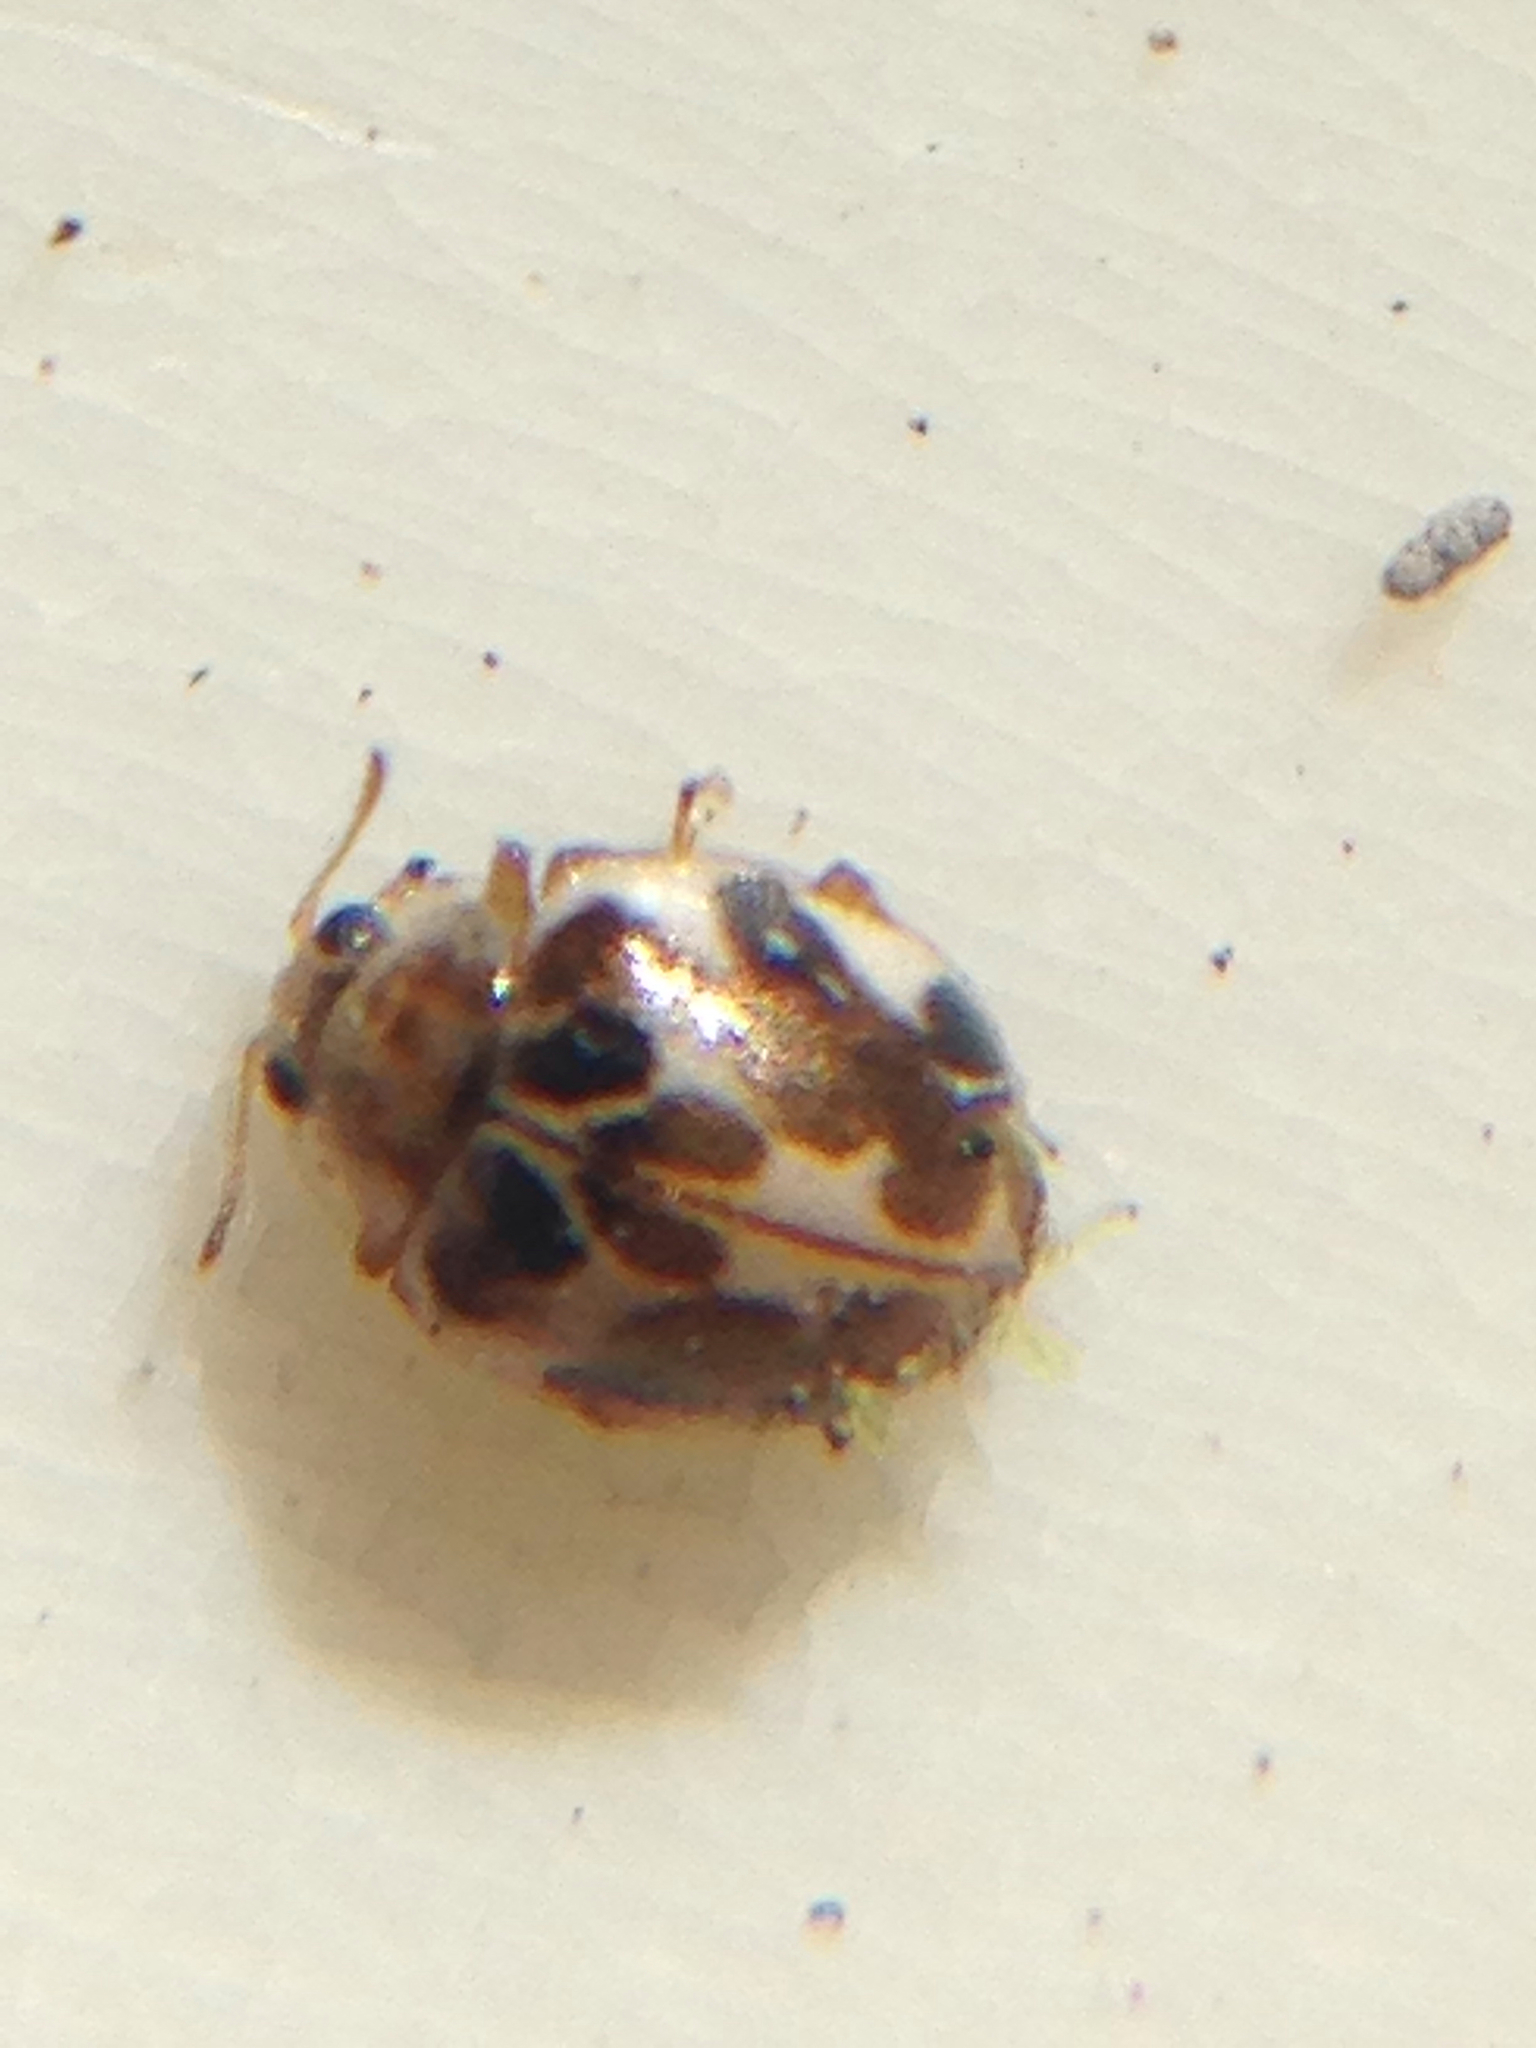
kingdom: Animalia
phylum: Arthropoda
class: Insecta
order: Coleoptera
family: Coccinellidae
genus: Psyllobora
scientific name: Psyllobora vigintimaculata
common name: Ladybird beetle
